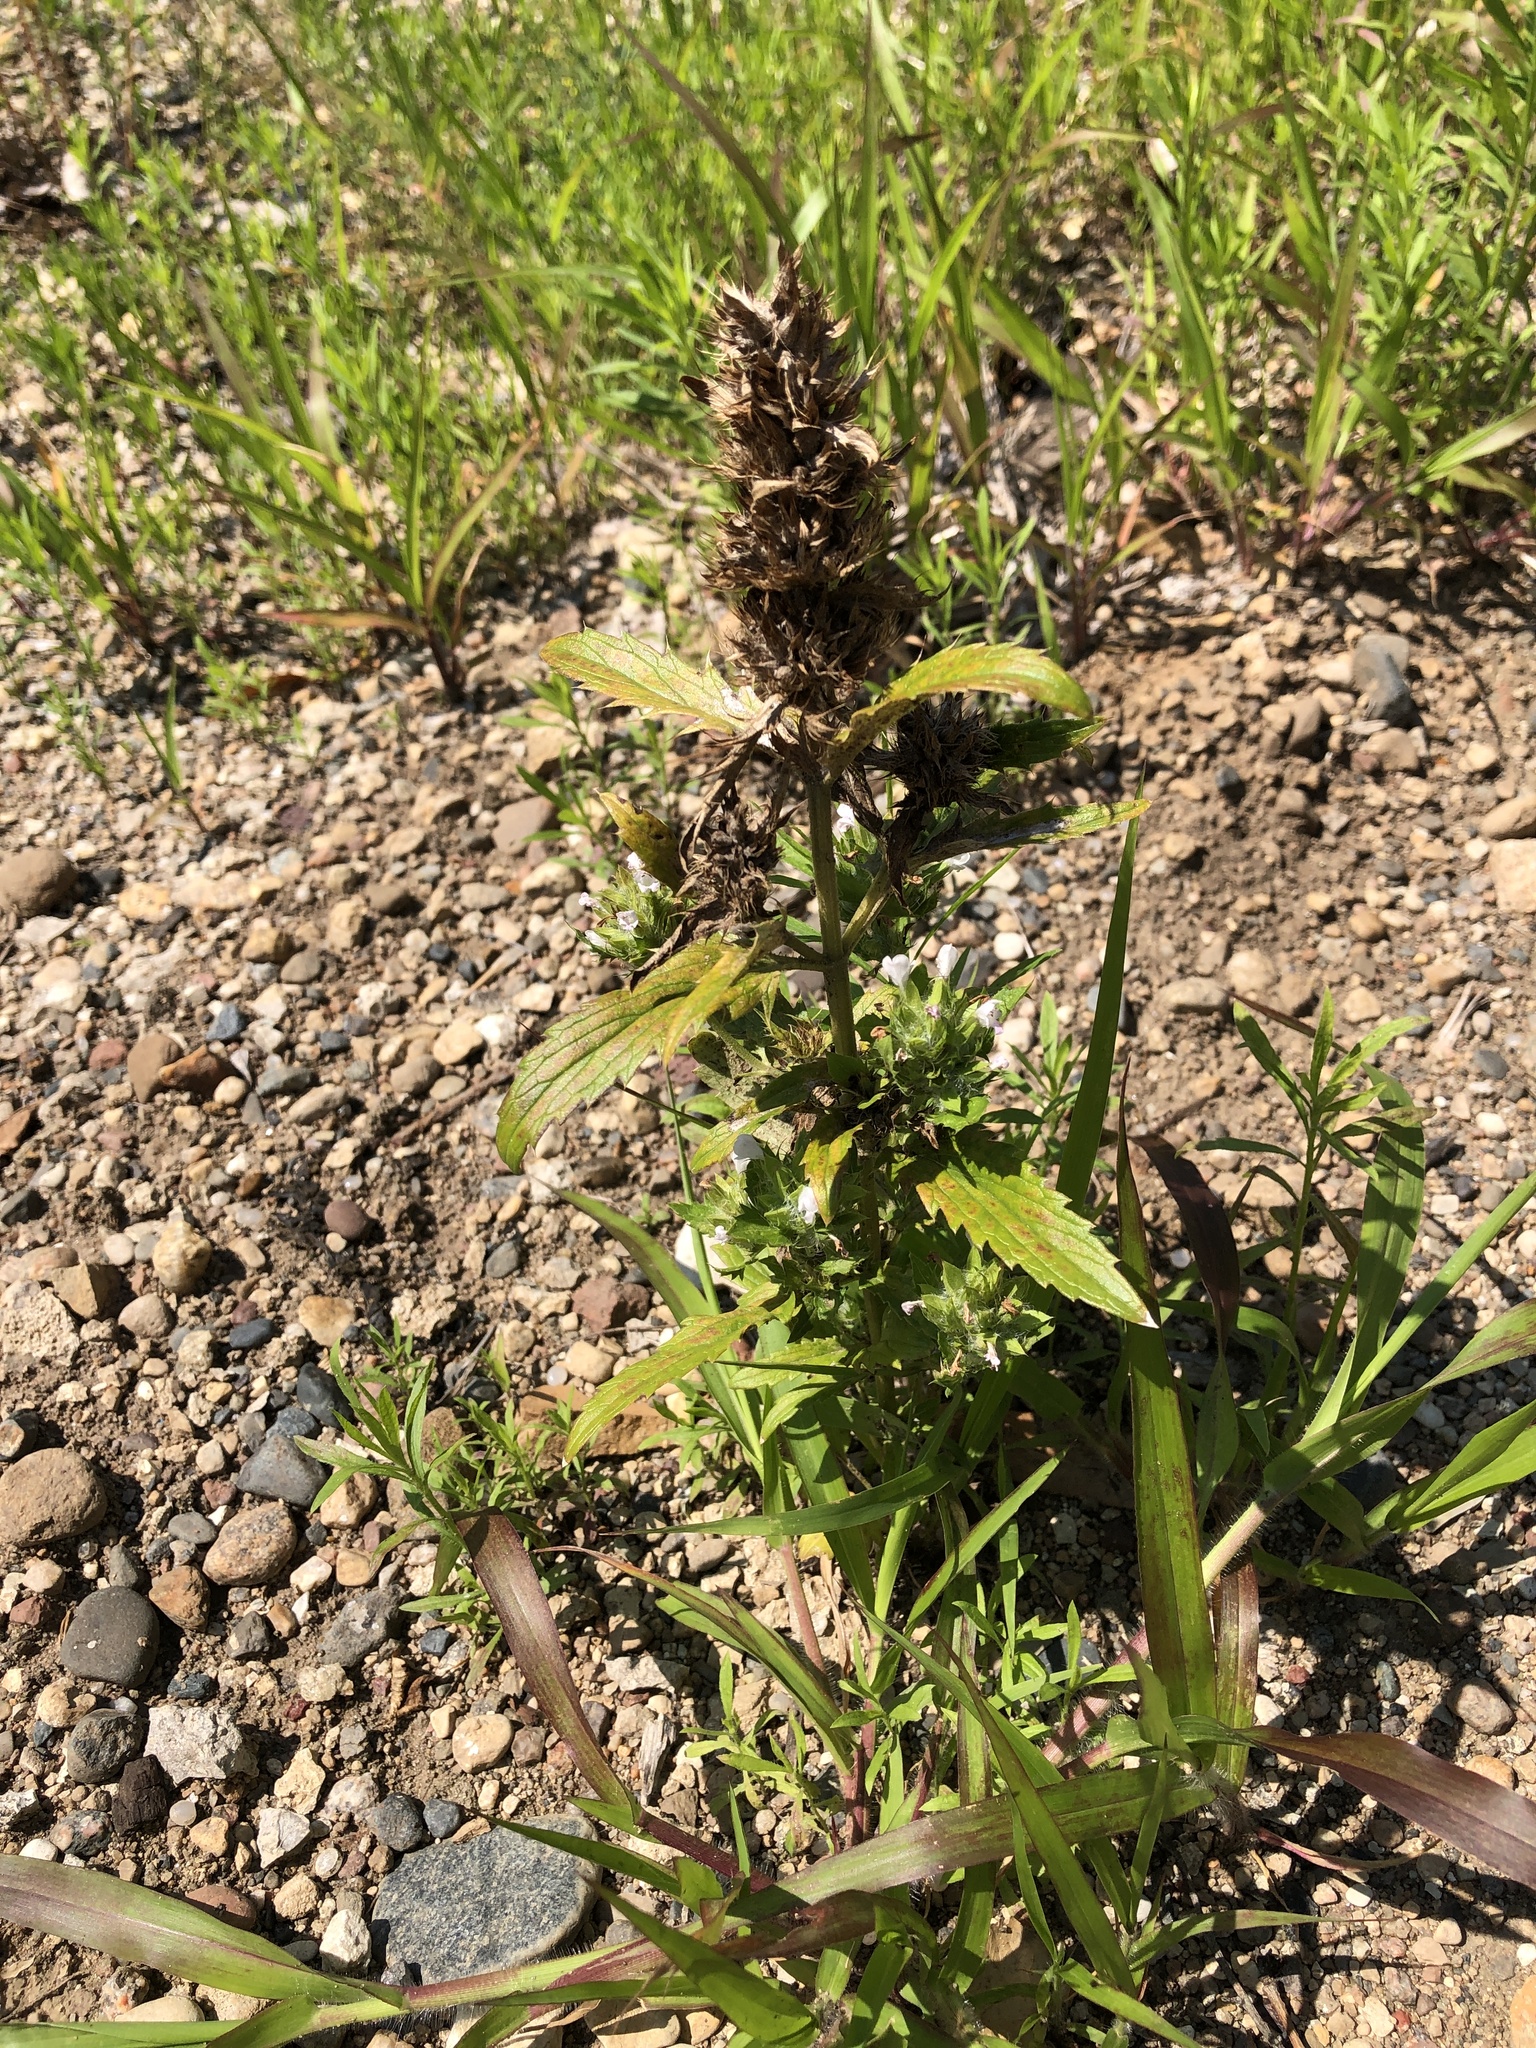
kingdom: Plantae
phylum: Tracheophyta
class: Magnoliopsida
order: Lamiales
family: Lamiaceae
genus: Dracocephalum
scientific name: Dracocephalum parviflorum
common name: American dragonhead
